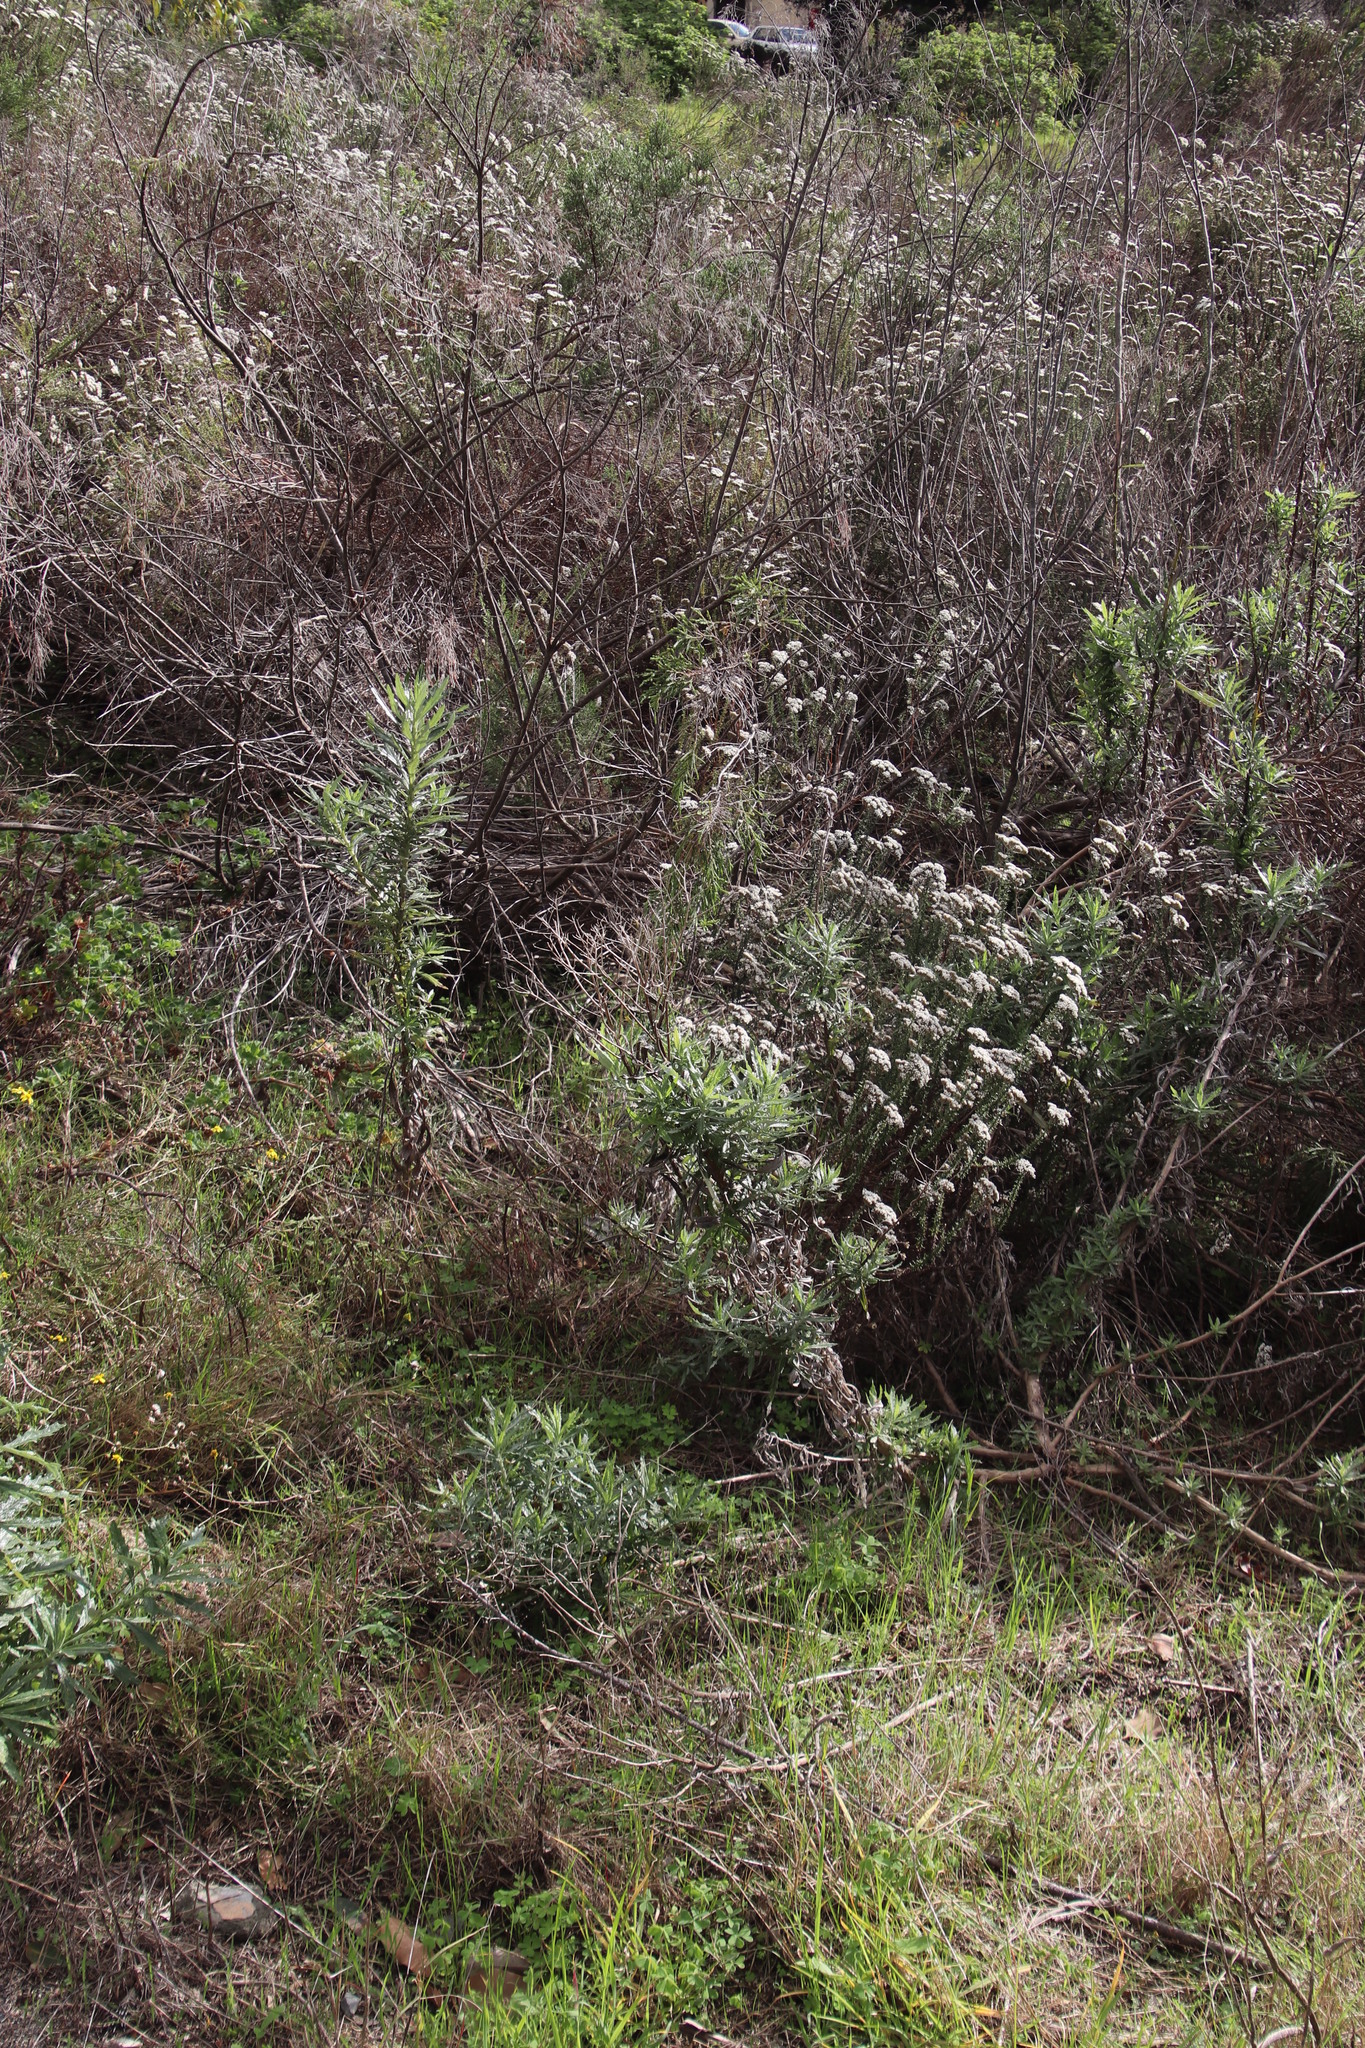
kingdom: Plantae
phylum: Tracheophyta
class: Magnoliopsida
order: Asterales
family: Asteraceae
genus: Senecio
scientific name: Senecio pterophorus
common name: Shoddy ragwort
